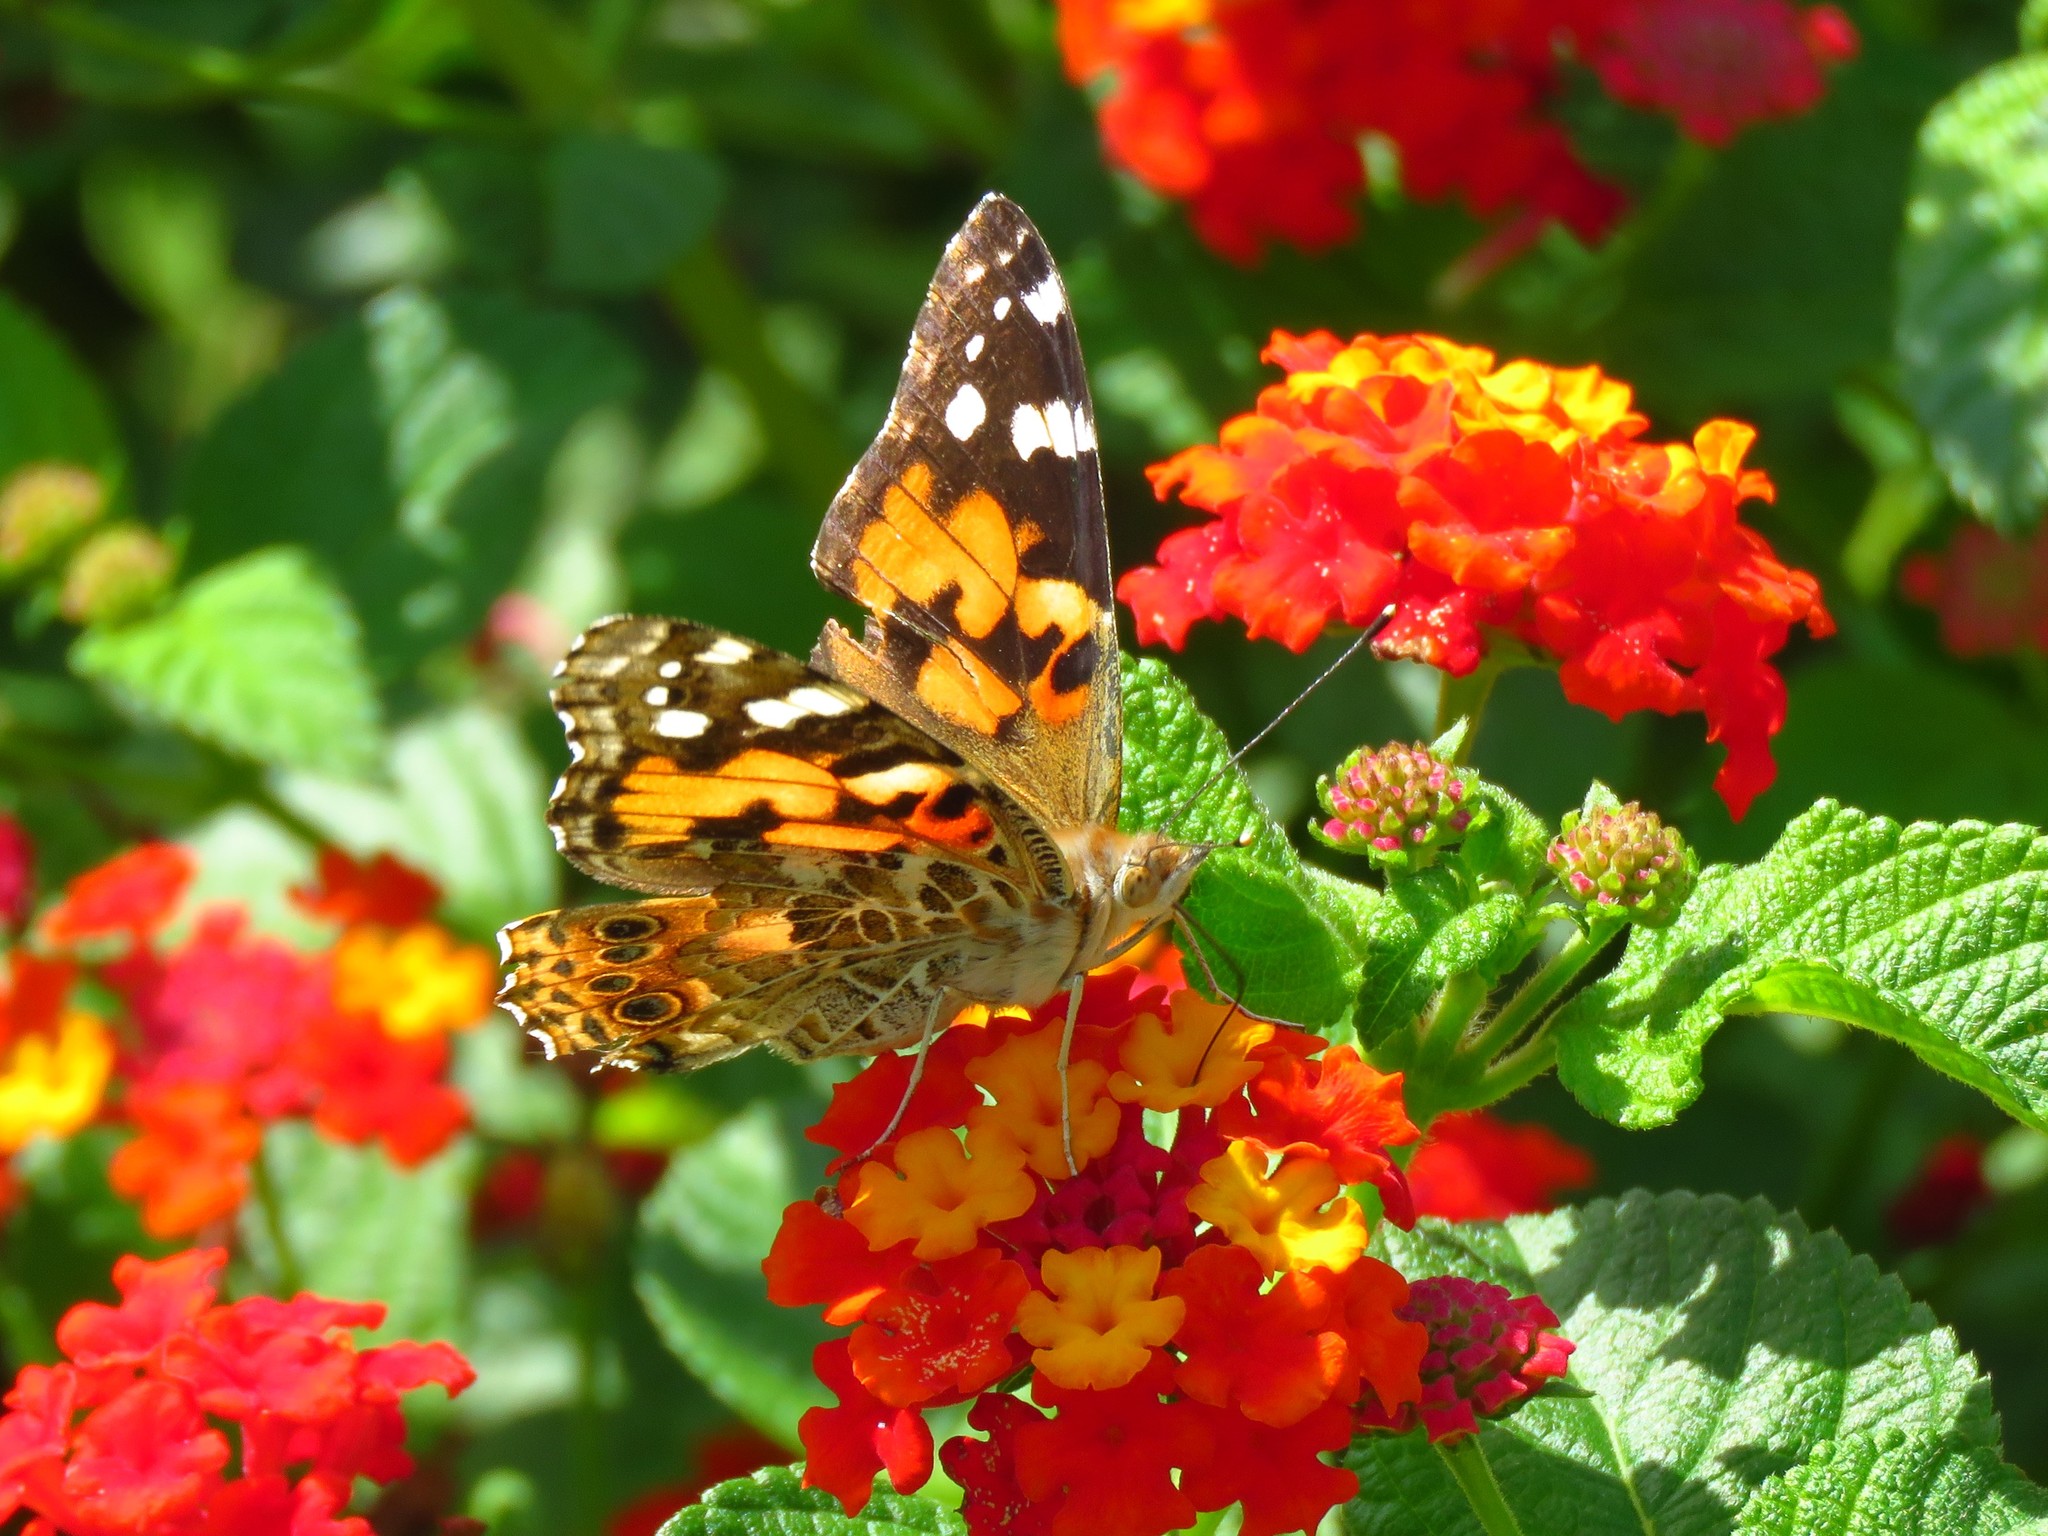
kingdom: Animalia
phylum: Arthropoda
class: Insecta
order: Lepidoptera
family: Nymphalidae
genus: Vanessa
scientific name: Vanessa cardui
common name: Painted lady
